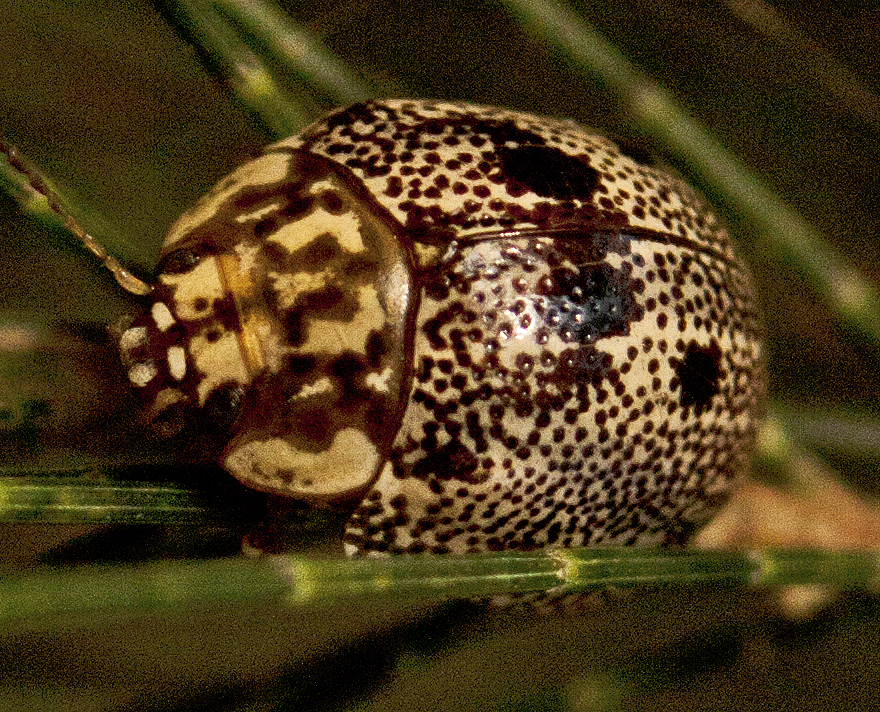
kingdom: Animalia
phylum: Arthropoda
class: Insecta
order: Coleoptera
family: Chrysomelidae
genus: Paropsis
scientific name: Paropsis sospita
